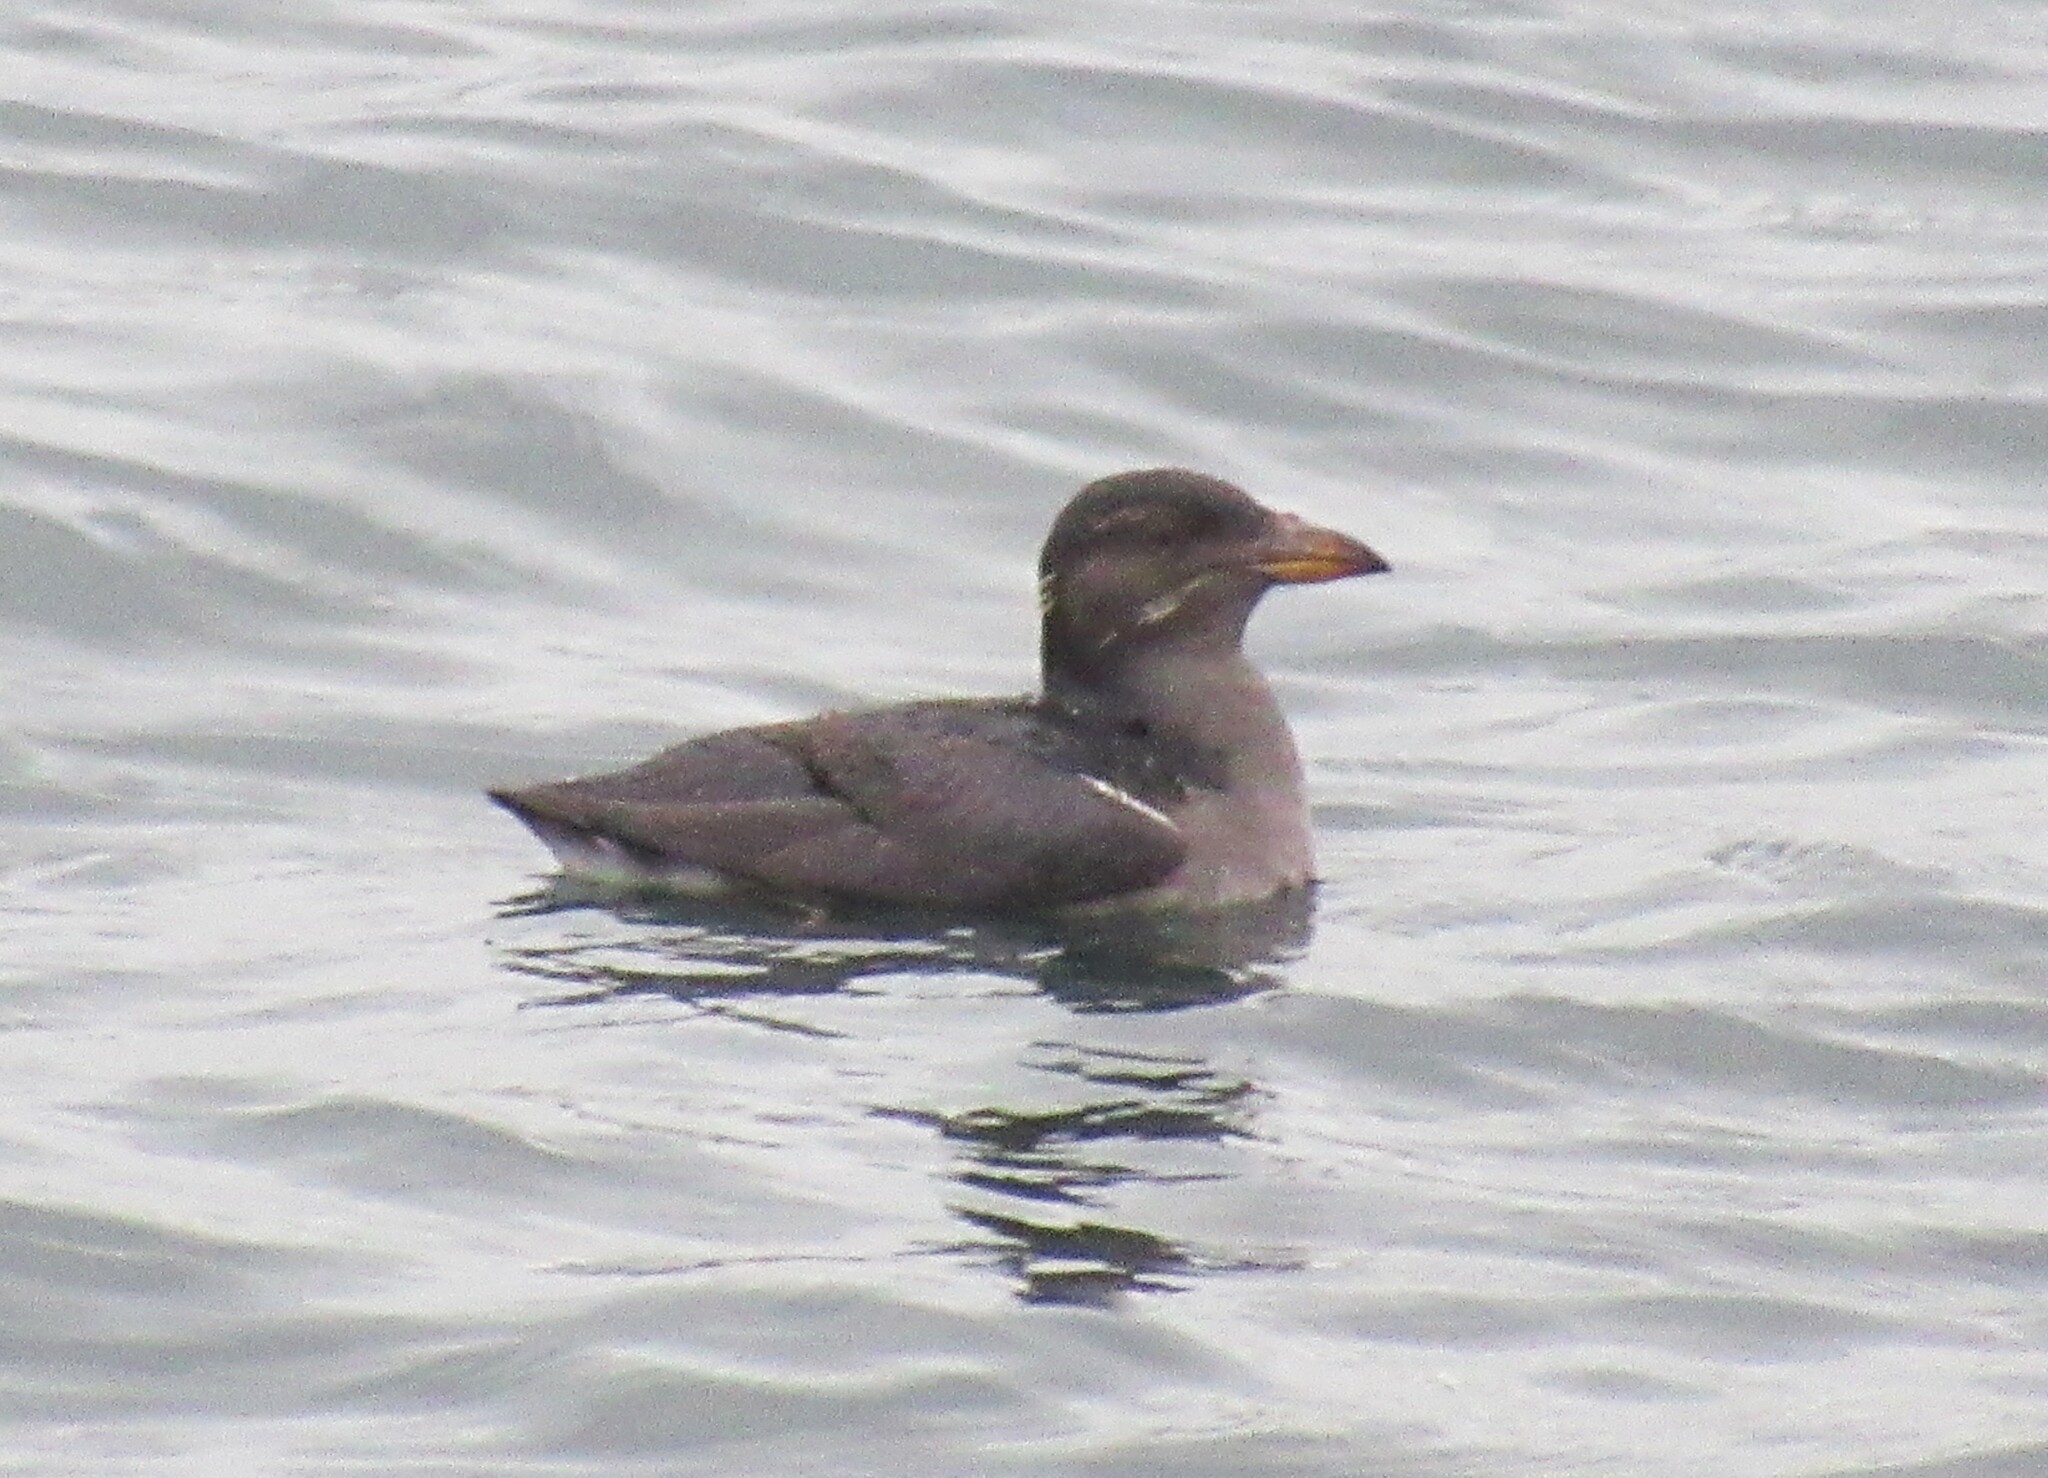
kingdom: Animalia
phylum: Chordata
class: Aves
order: Charadriiformes
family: Alcidae
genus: Cerorhinca
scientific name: Cerorhinca monocerata
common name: Rhinoceros auklet
